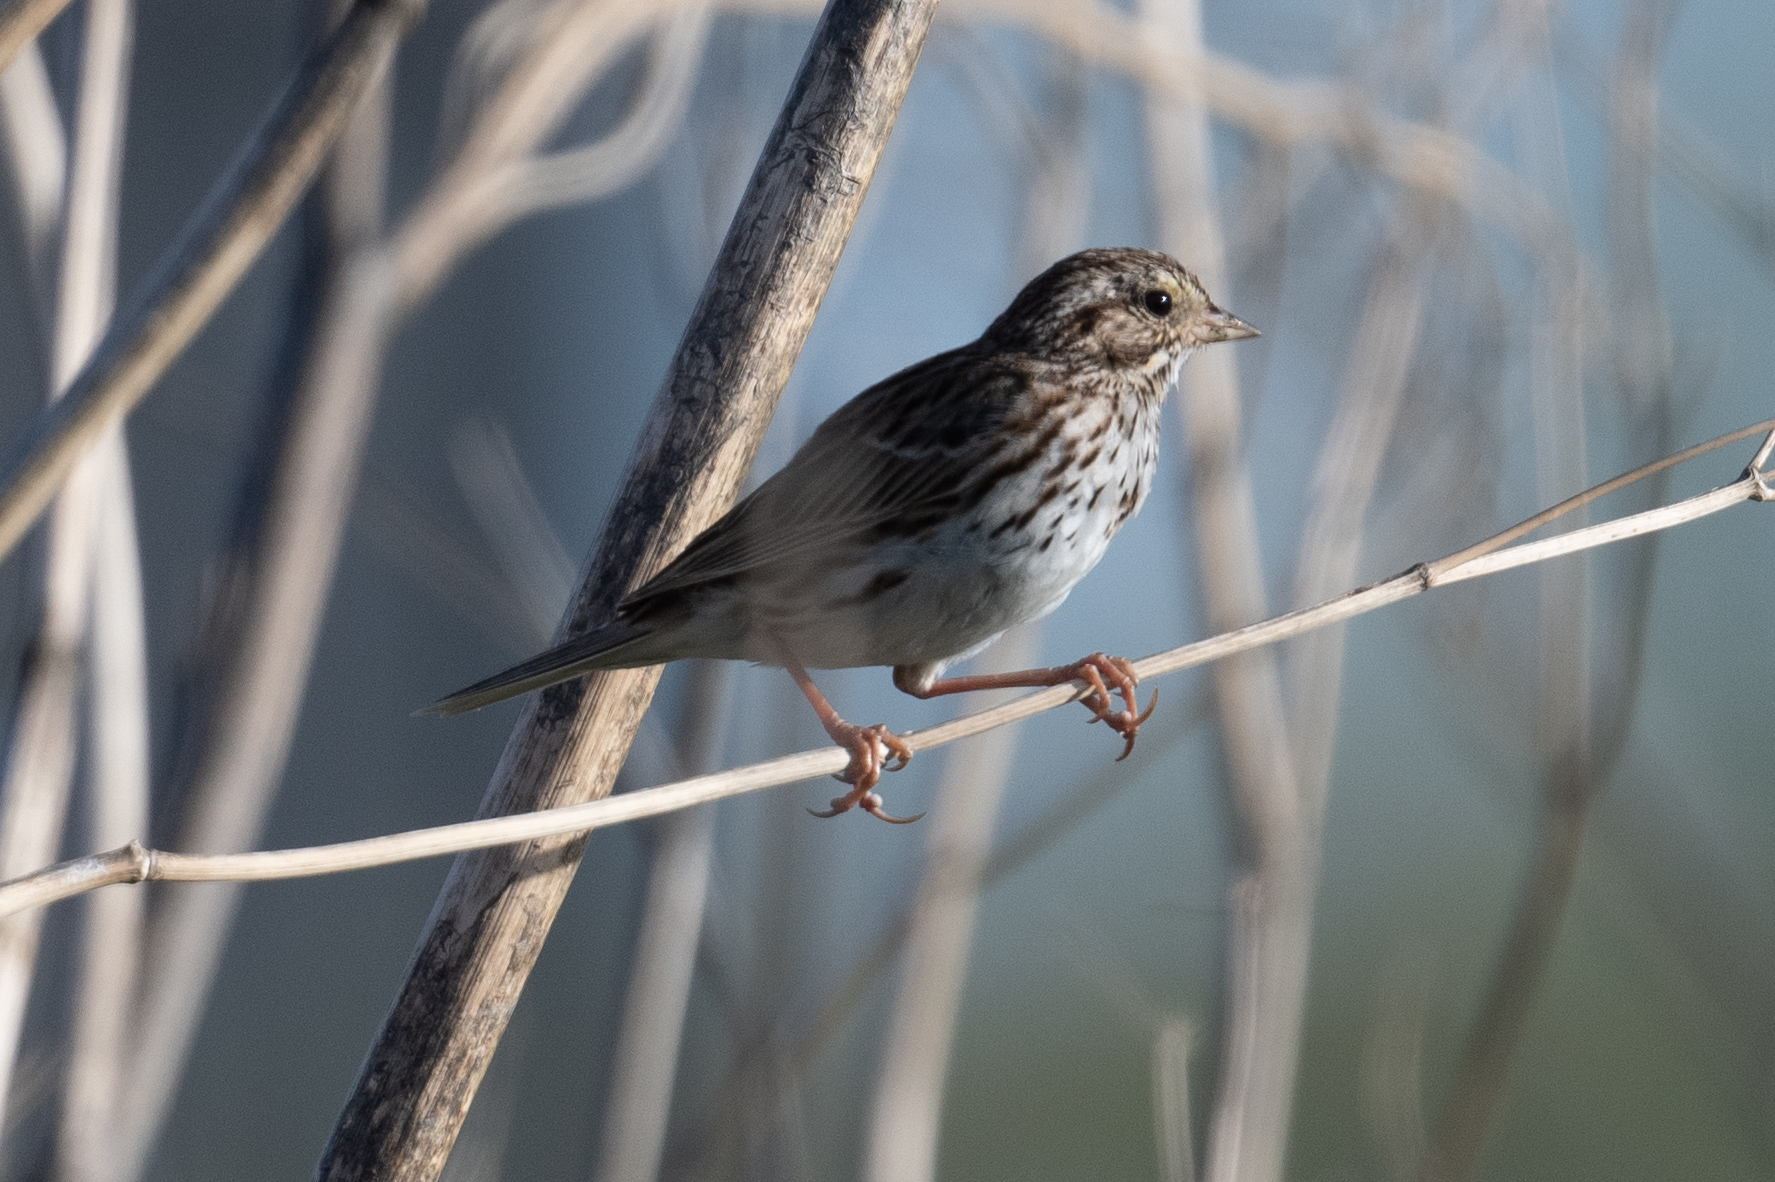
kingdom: Animalia
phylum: Chordata
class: Aves
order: Passeriformes
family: Passerellidae
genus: Passerculus
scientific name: Passerculus sandwichensis
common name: Savannah sparrow
